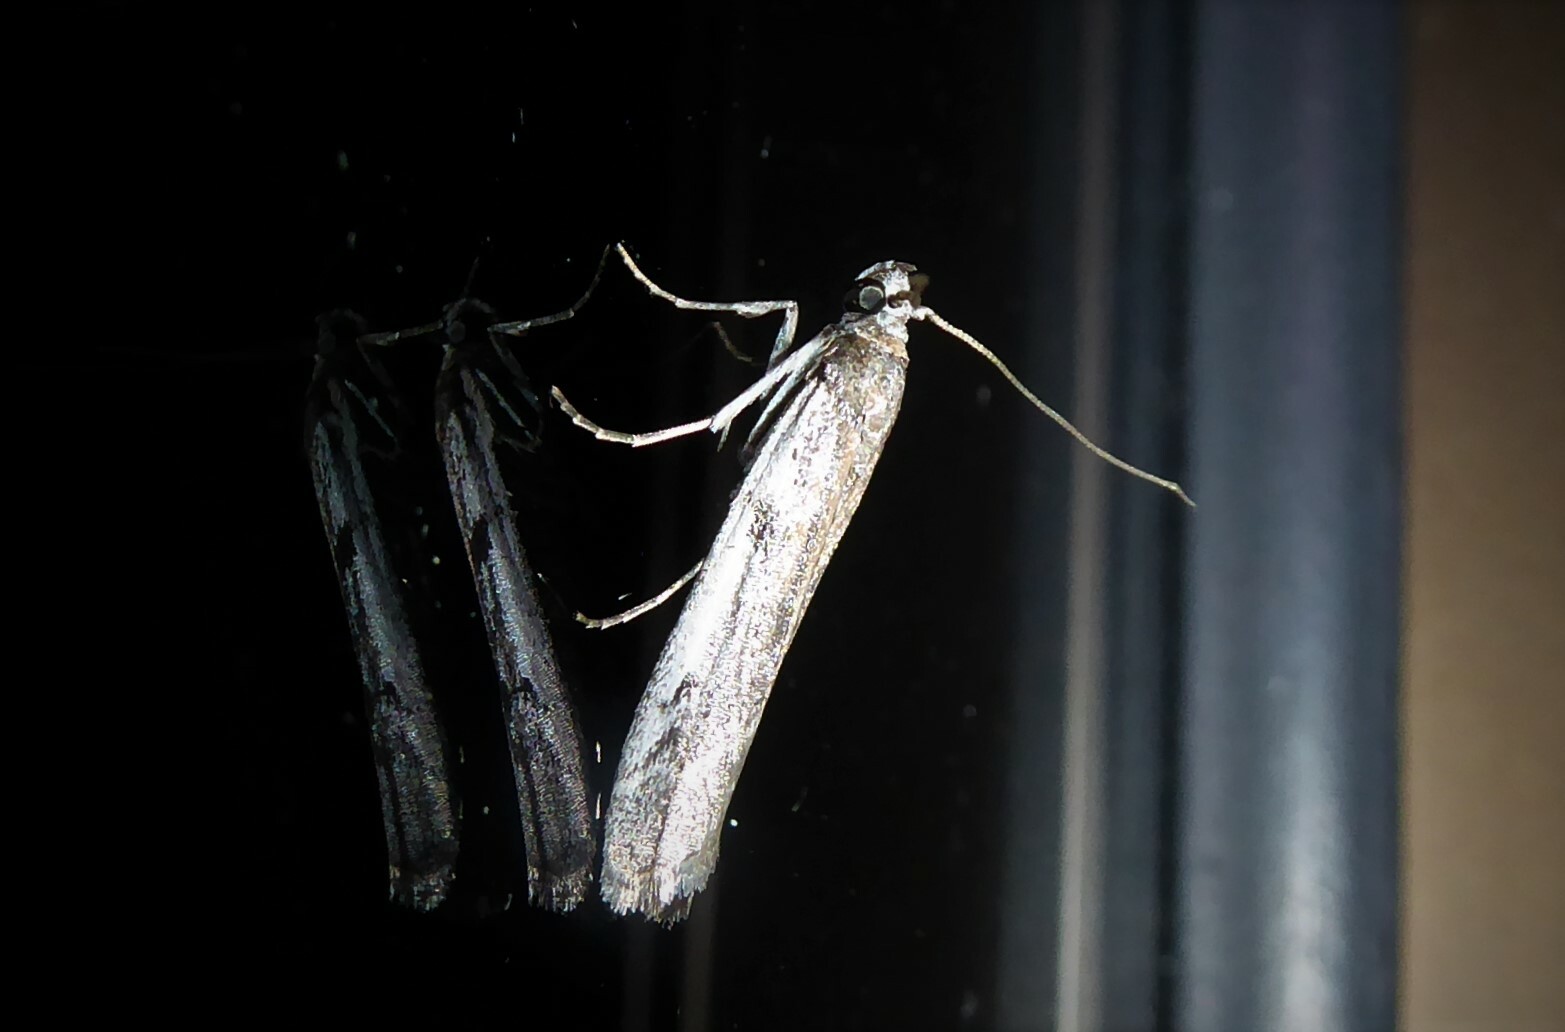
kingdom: Animalia
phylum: Arthropoda
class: Insecta
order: Lepidoptera
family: Pyralidae
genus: Patagoniodes
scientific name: Patagoniodes farinaria
